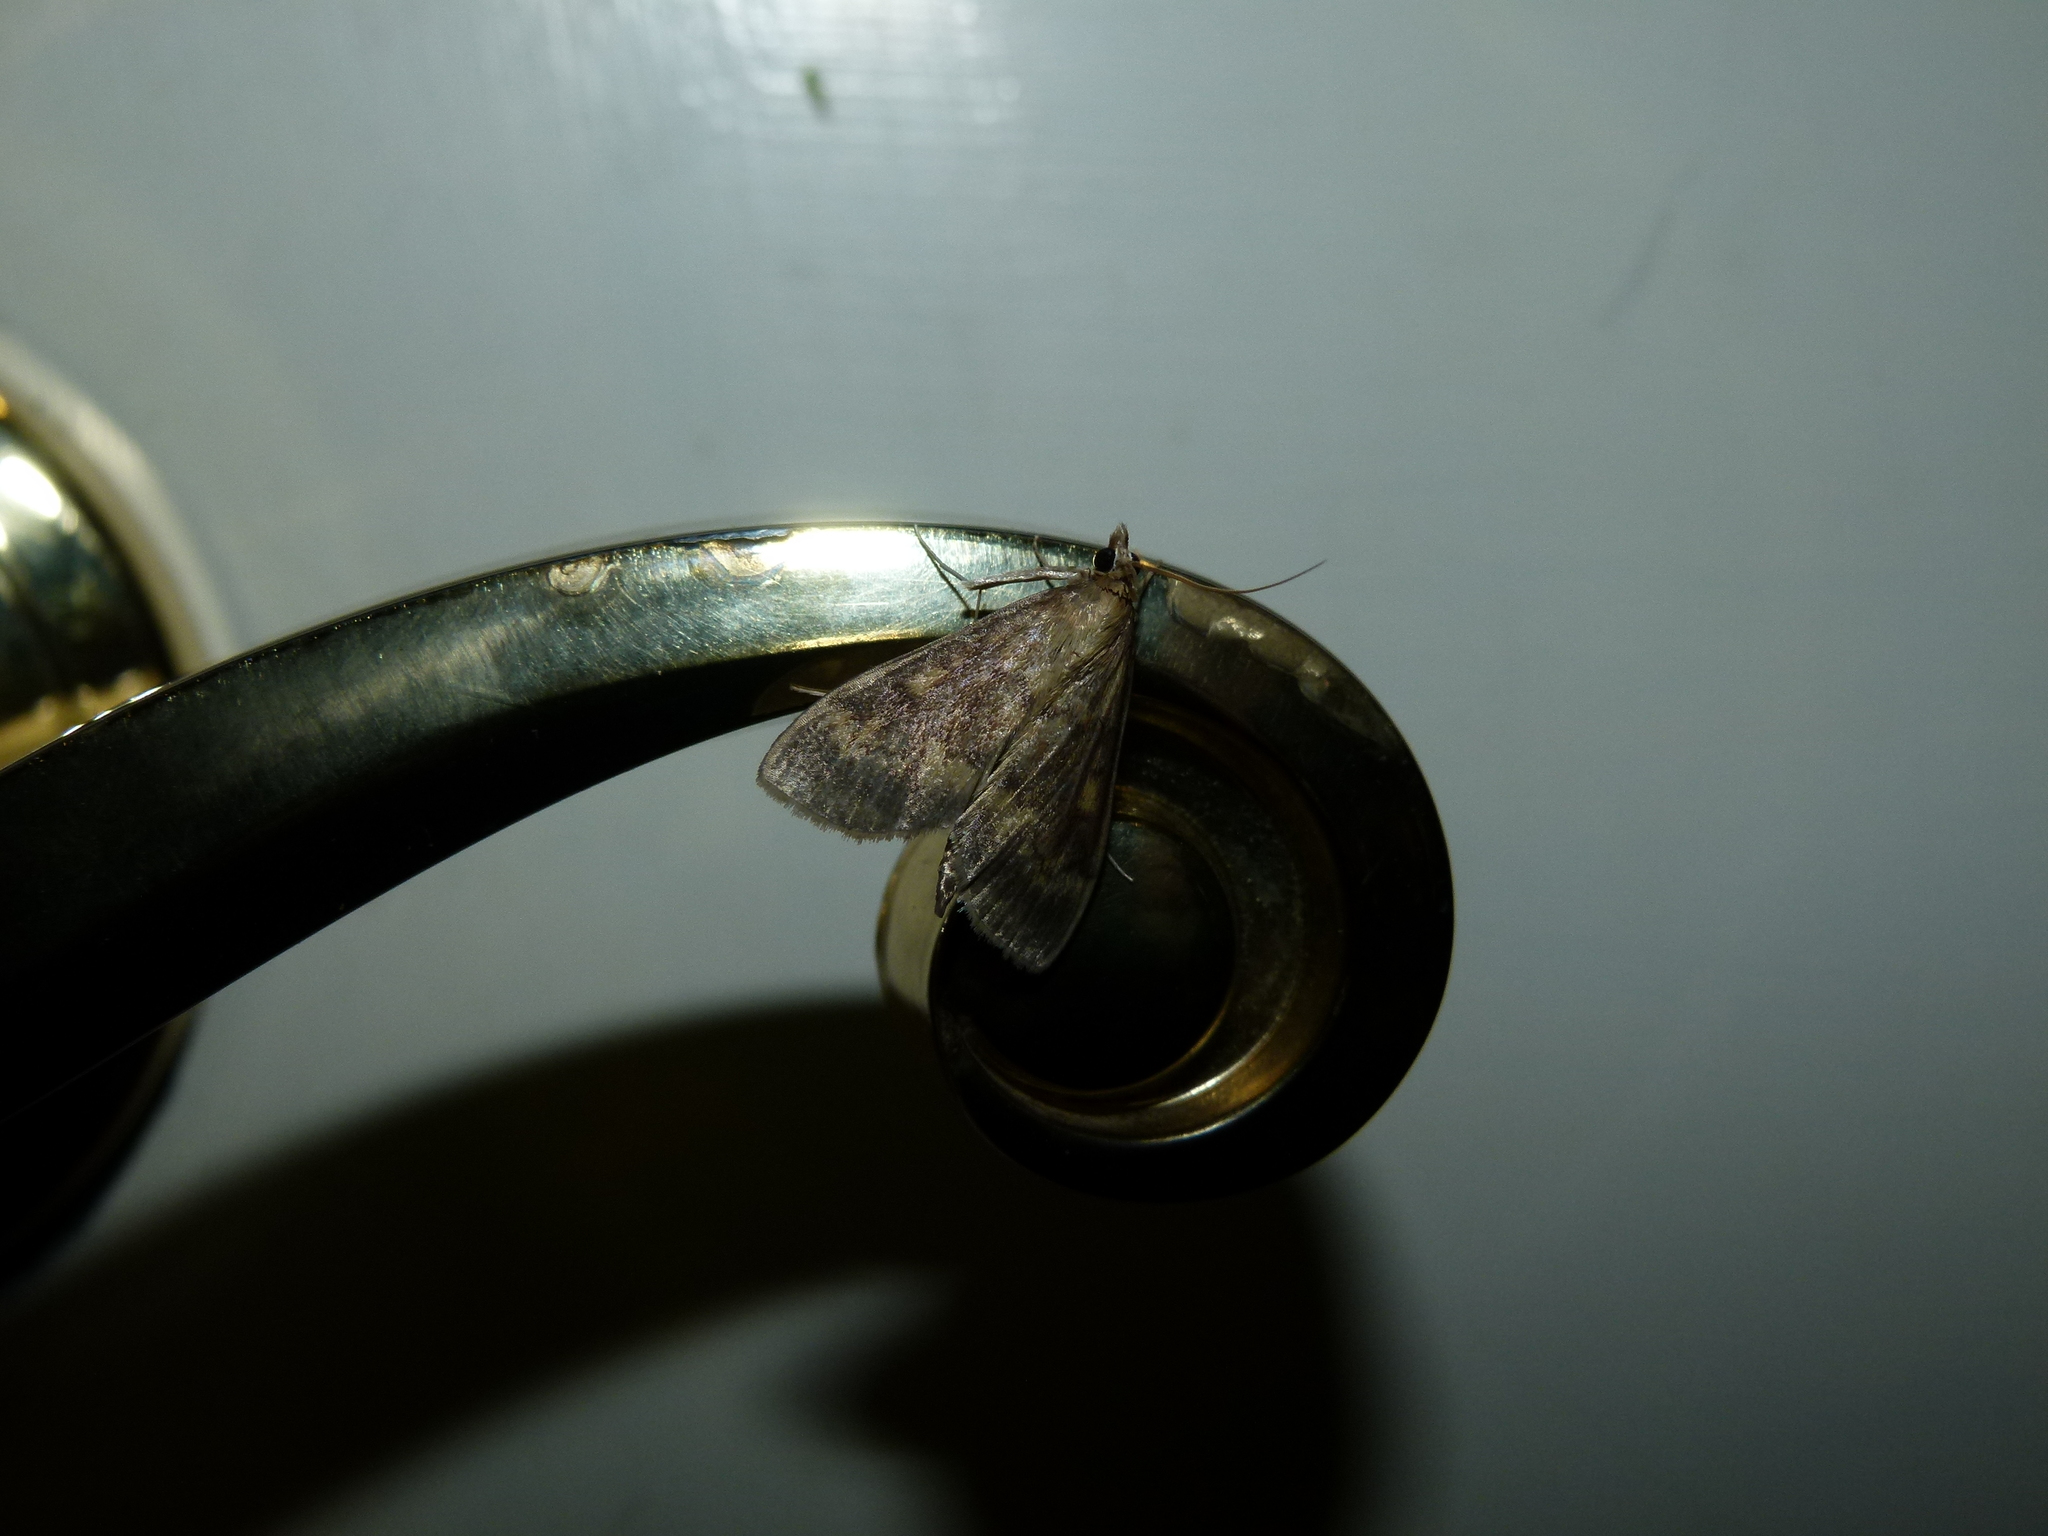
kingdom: Animalia
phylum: Arthropoda
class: Insecta
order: Lepidoptera
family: Crambidae
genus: Ostrinia
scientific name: Ostrinia nubilalis
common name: European corn borer
